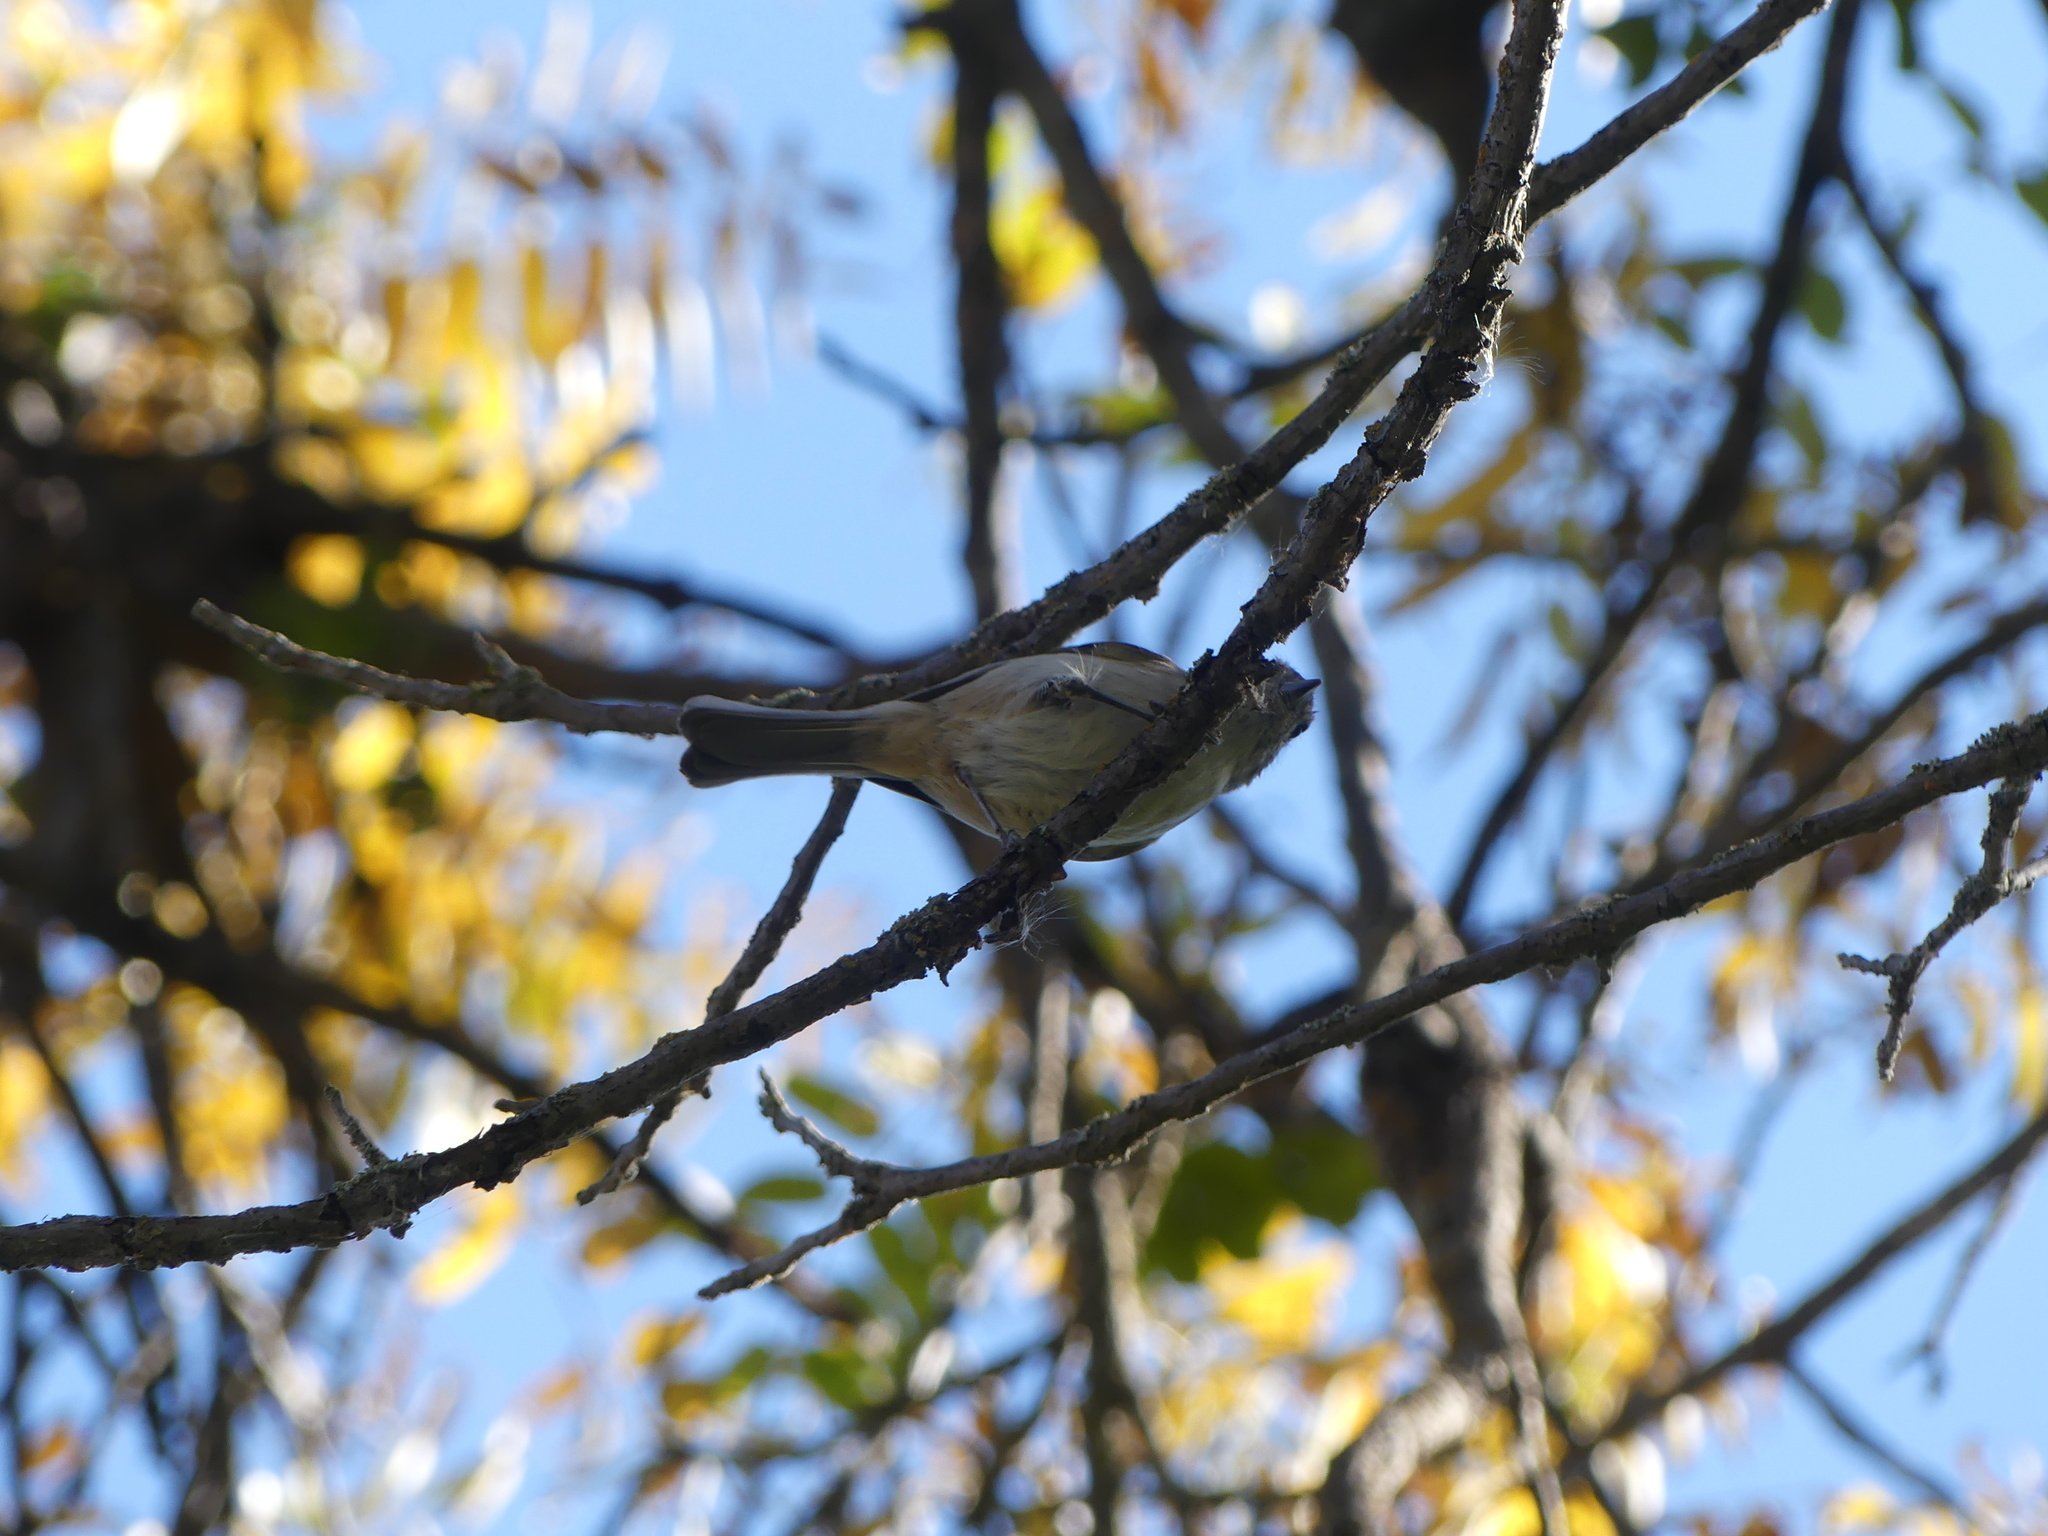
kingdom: Animalia
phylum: Chordata
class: Aves
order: Passeriformes
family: Paridae
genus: Baeolophus
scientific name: Baeolophus inornatus
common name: Oak titmouse
